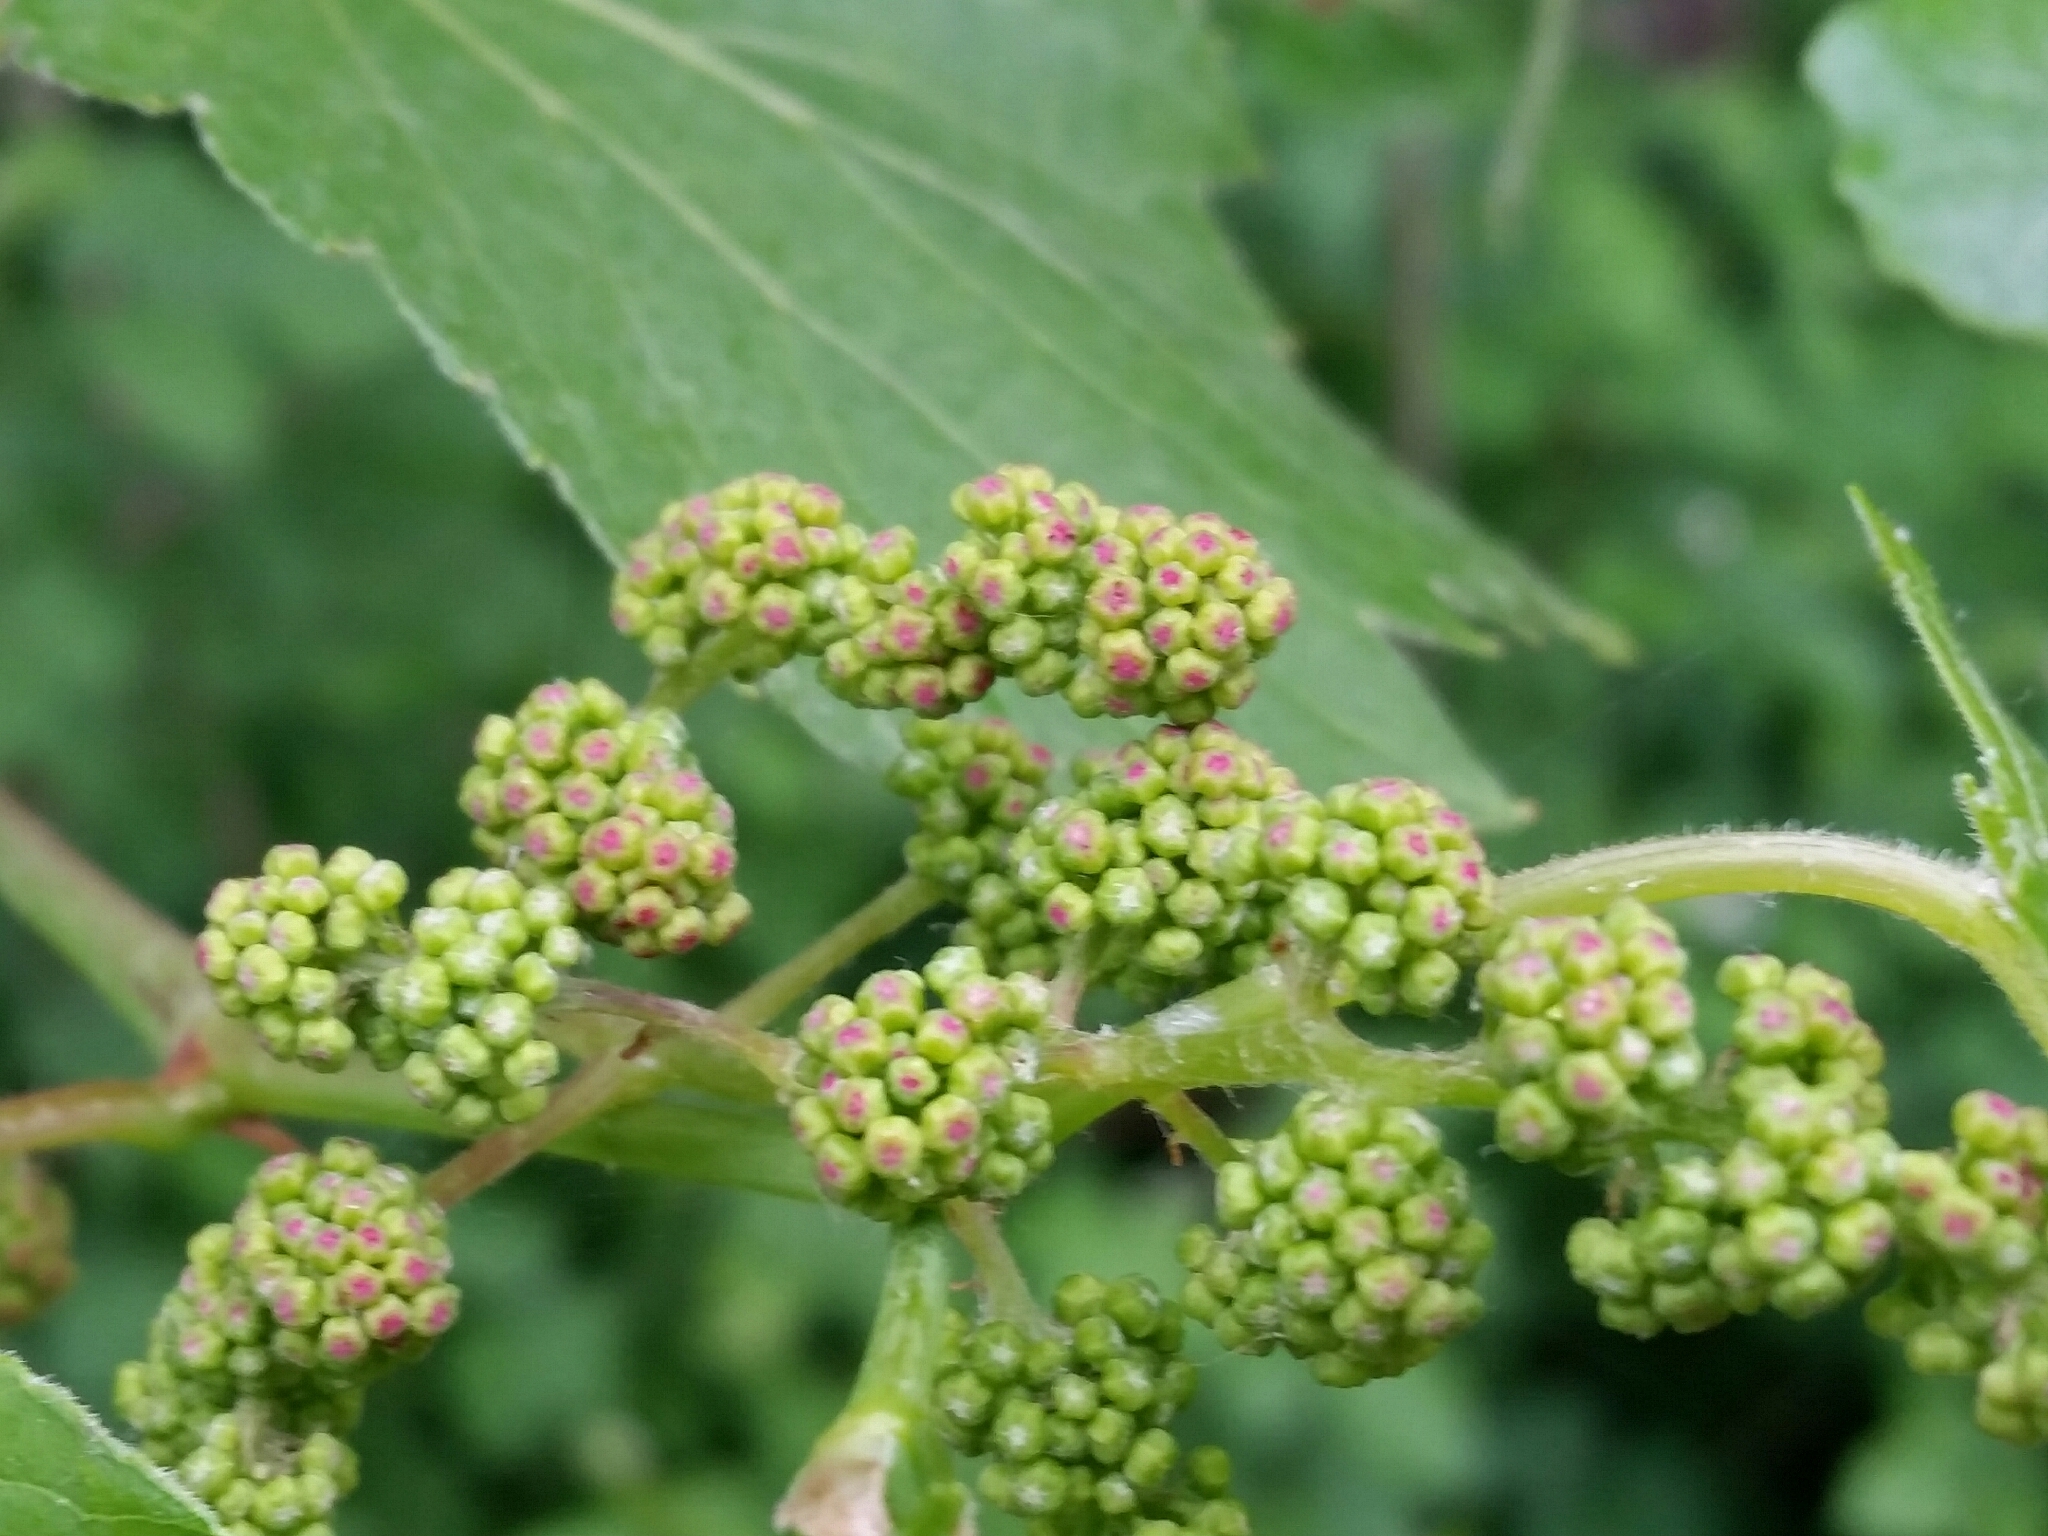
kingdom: Plantae
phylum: Tracheophyta
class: Magnoliopsida
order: Vitales
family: Vitaceae
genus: Vitis
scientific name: Vitis vinifera
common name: Grape-vine
